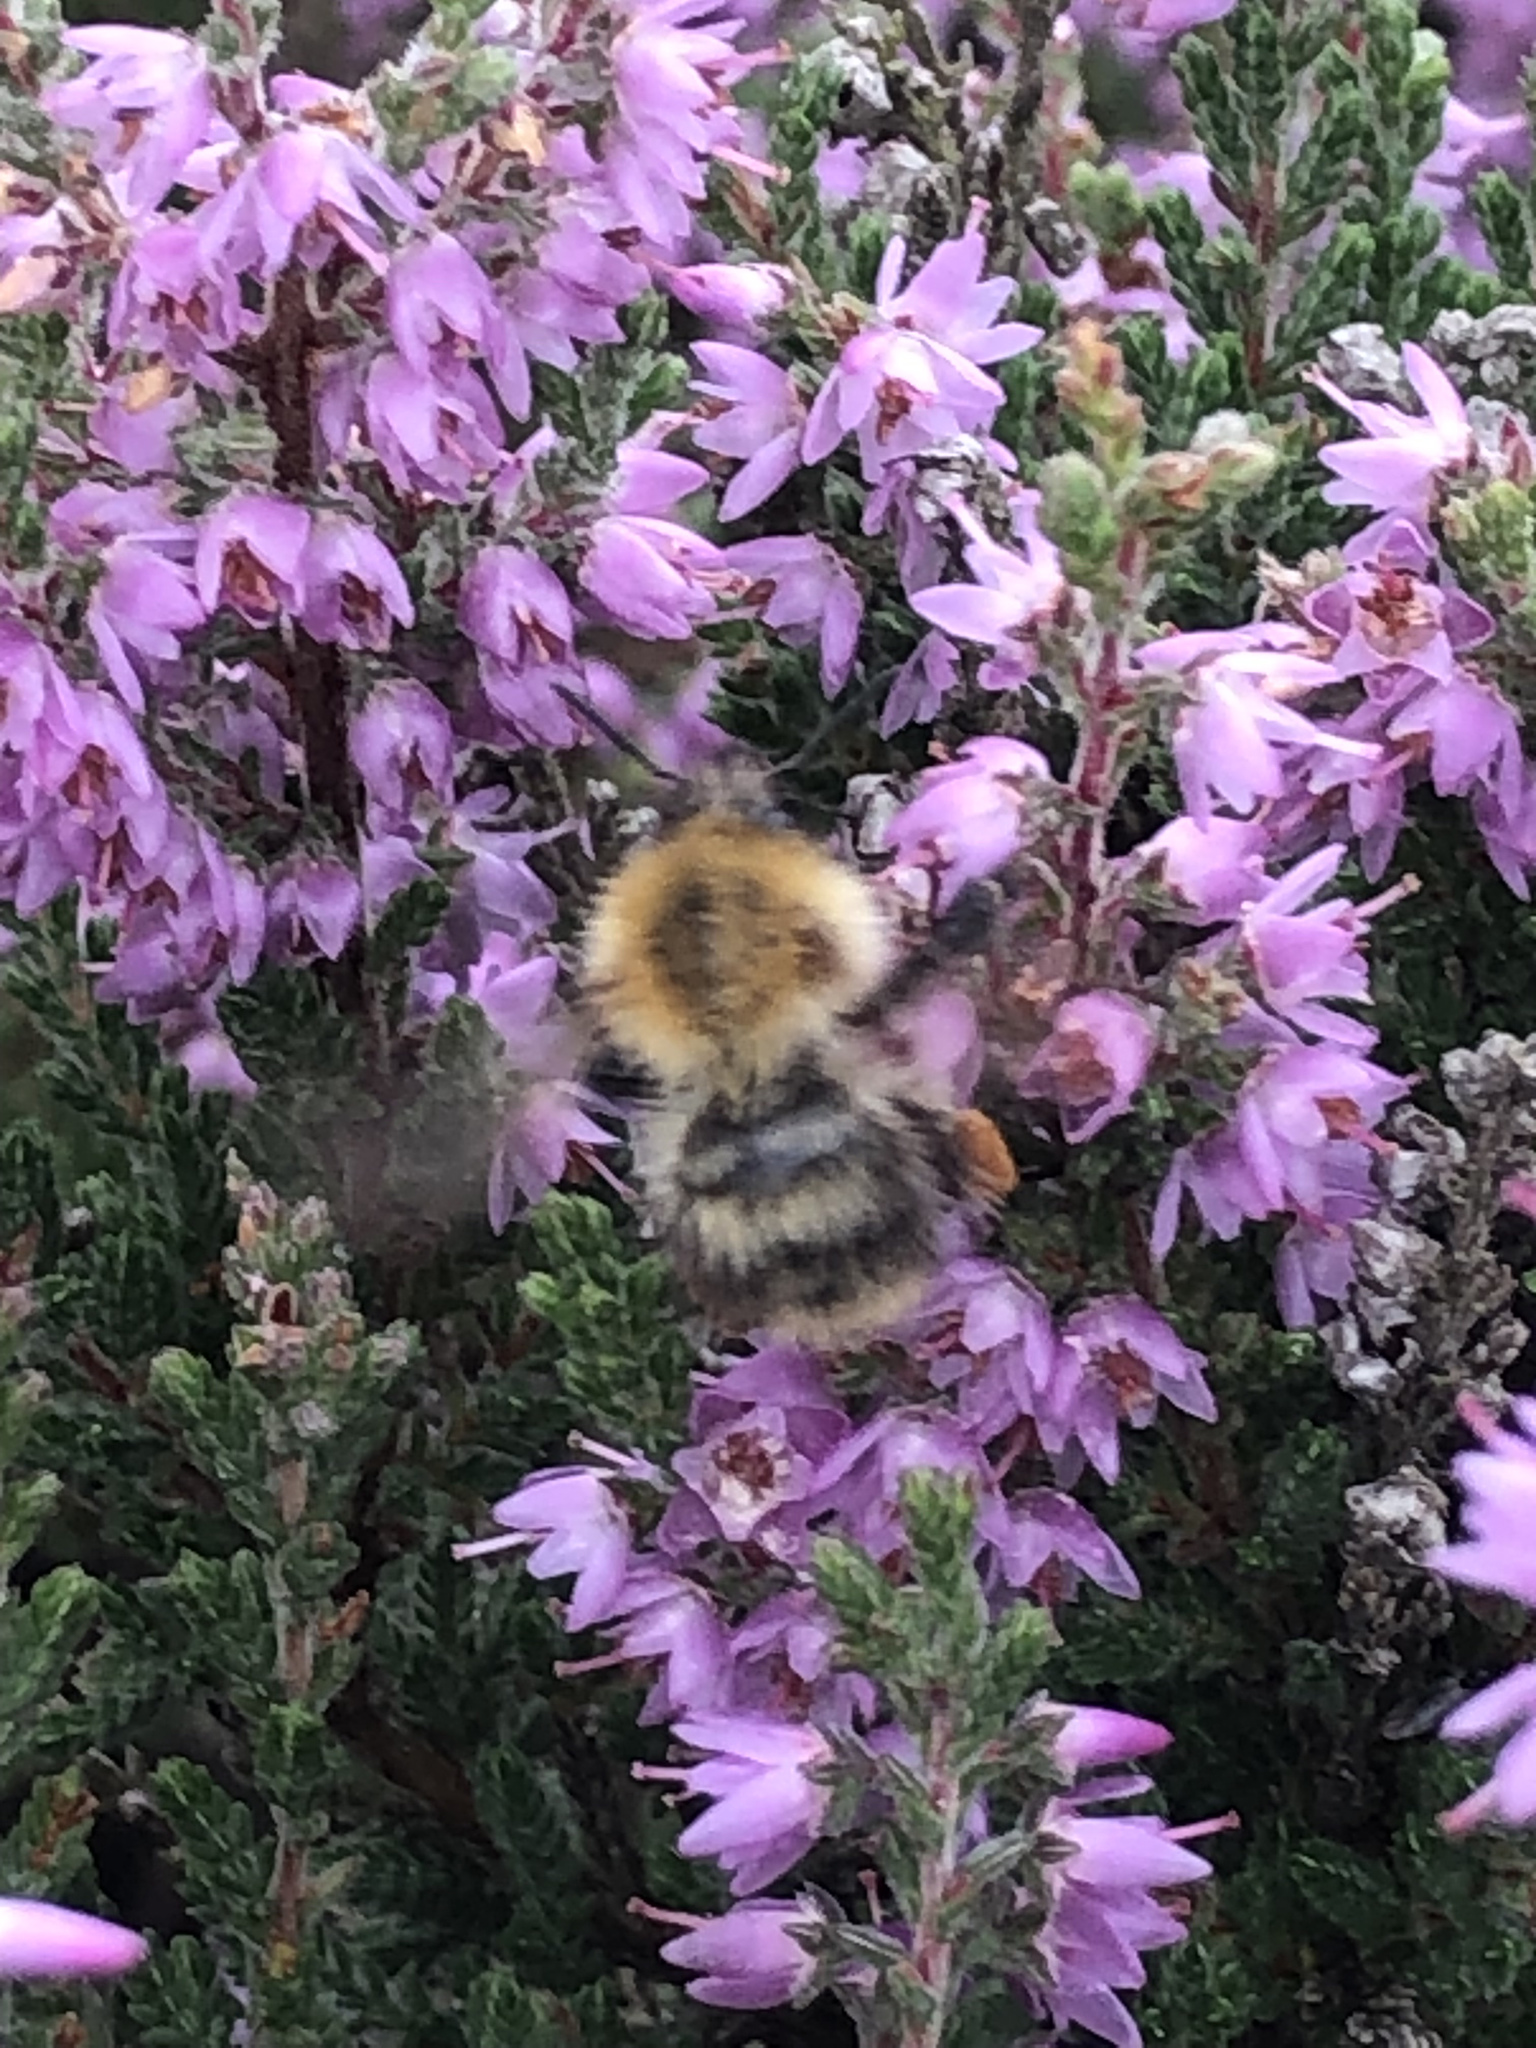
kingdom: Animalia
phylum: Arthropoda
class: Insecta
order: Hymenoptera
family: Apidae
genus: Bombus
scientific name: Bombus pascuorum
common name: Common carder bee
